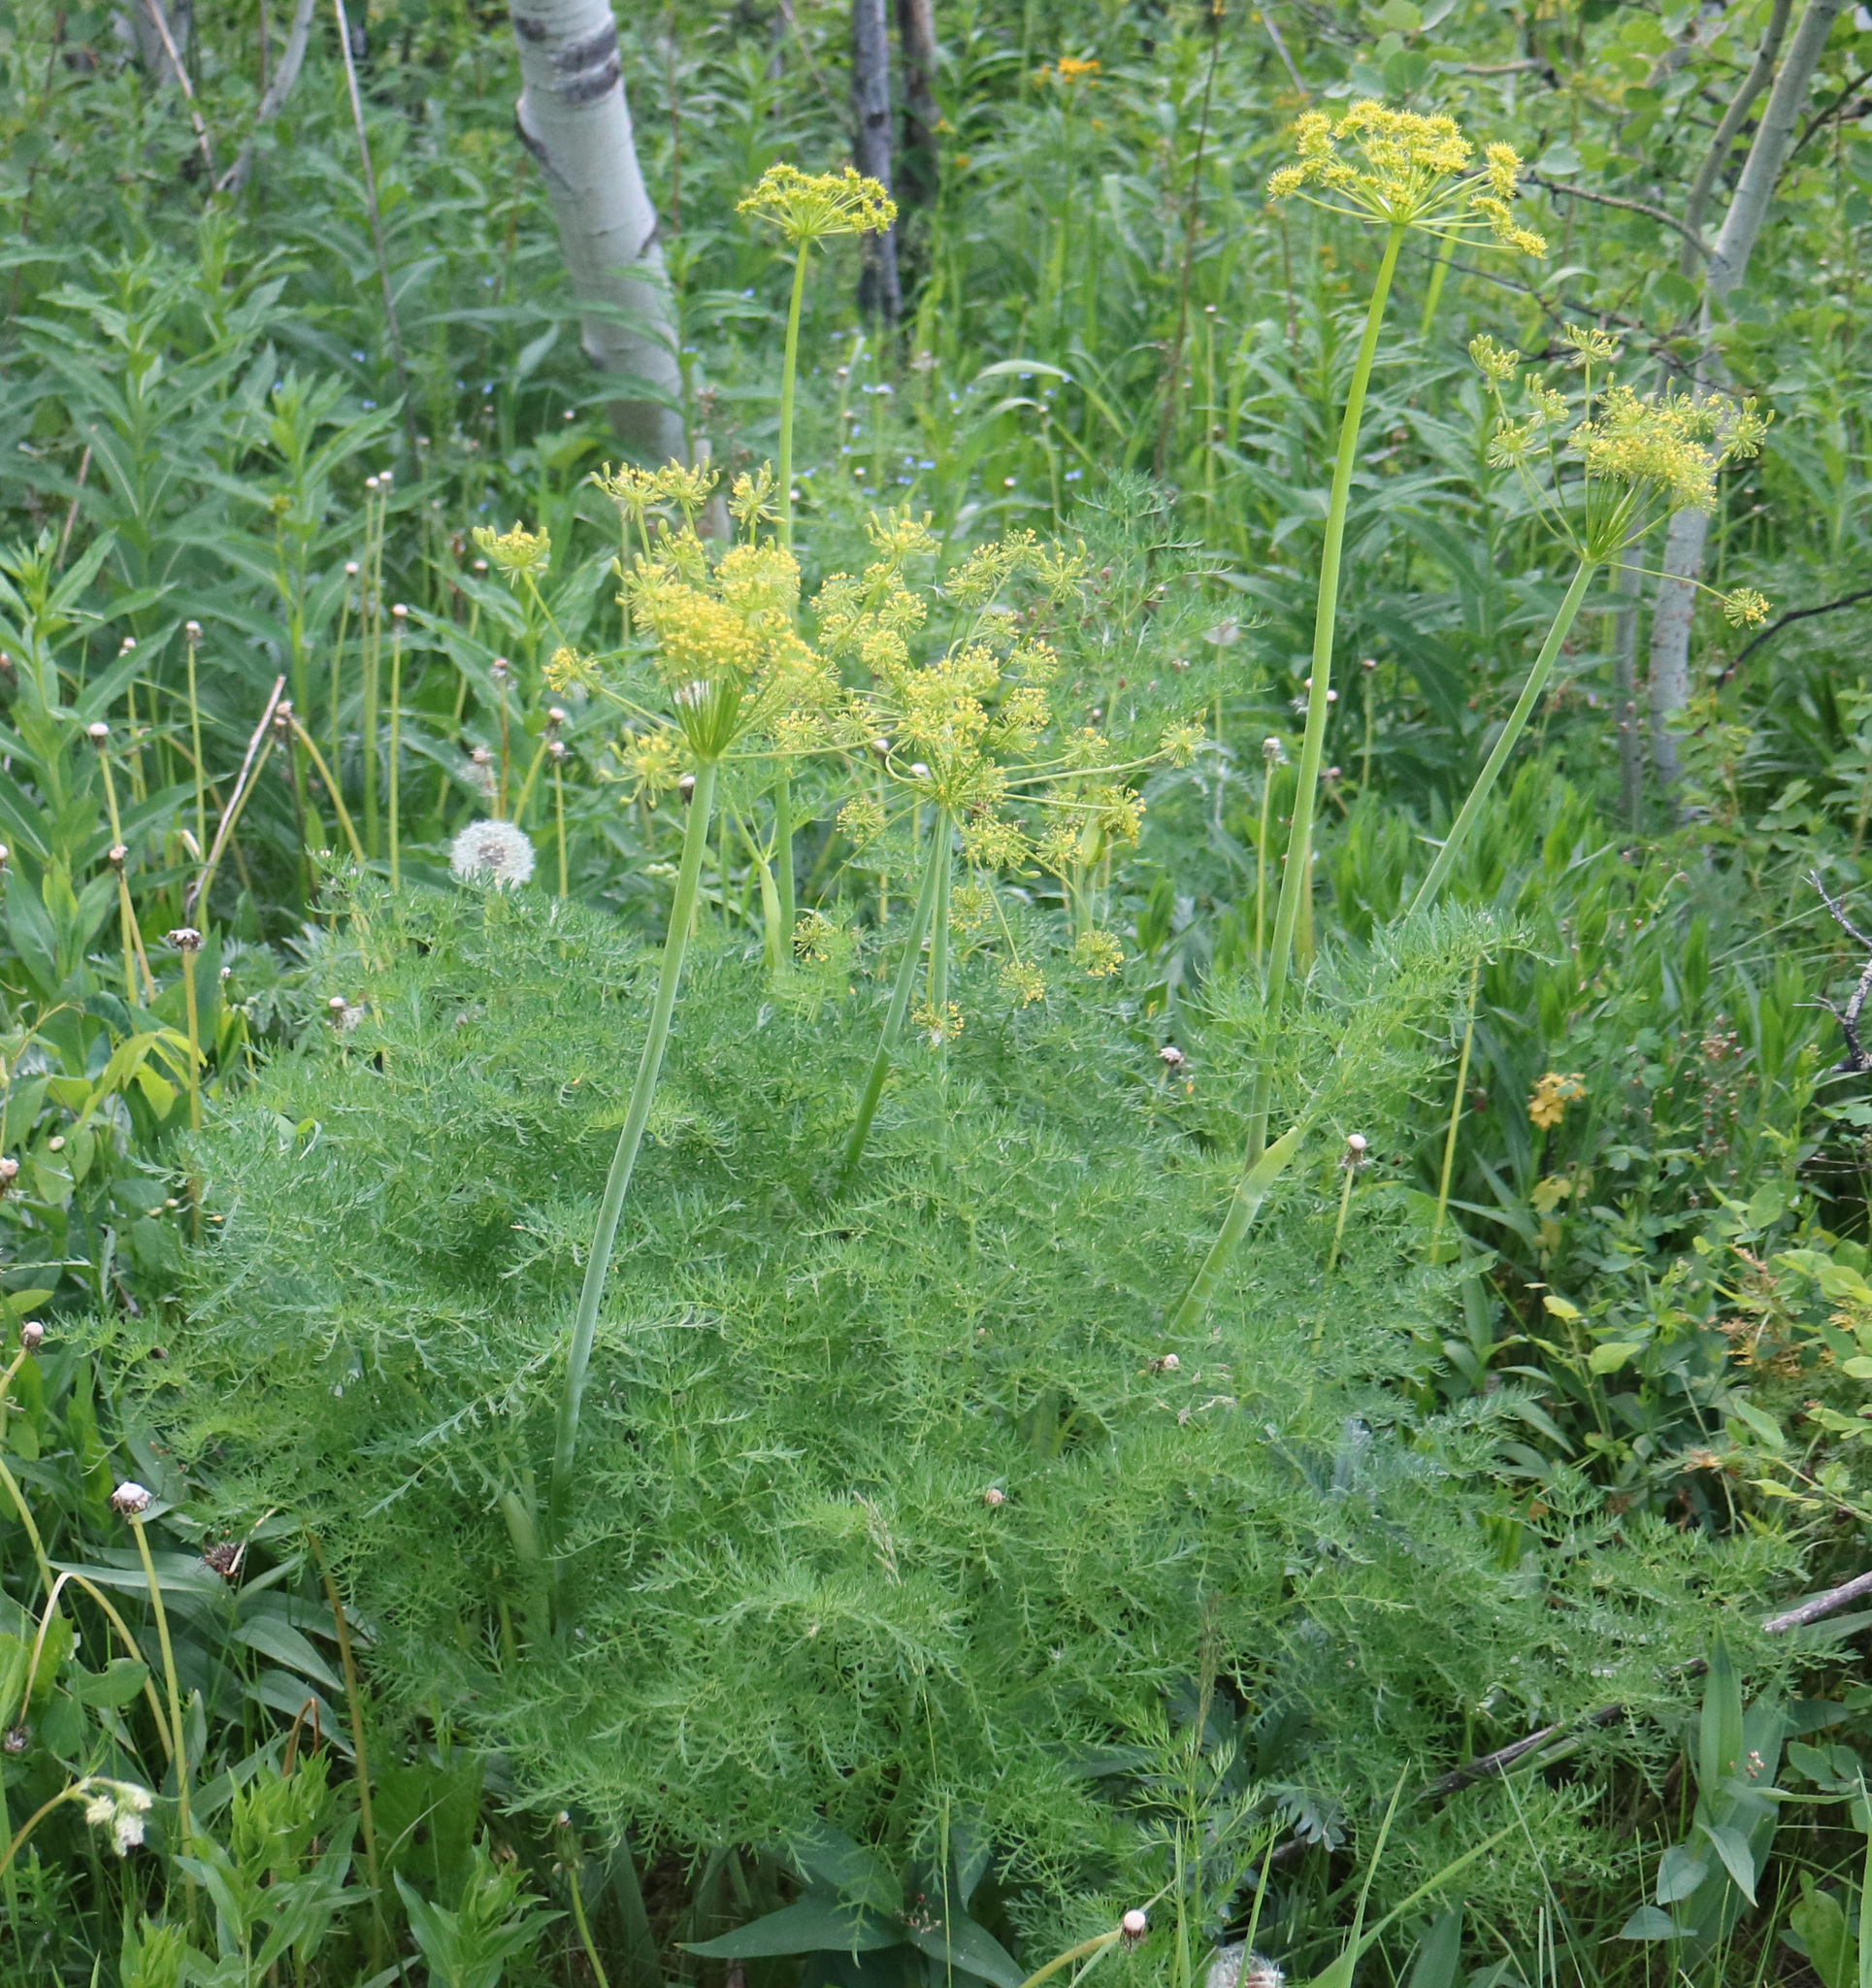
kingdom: Plantae
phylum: Tracheophyta
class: Magnoliopsida
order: Apiales
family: Apiaceae
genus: Lomatium
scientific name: Lomatium multifidum
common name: Carrot-leaved biscuitroot
